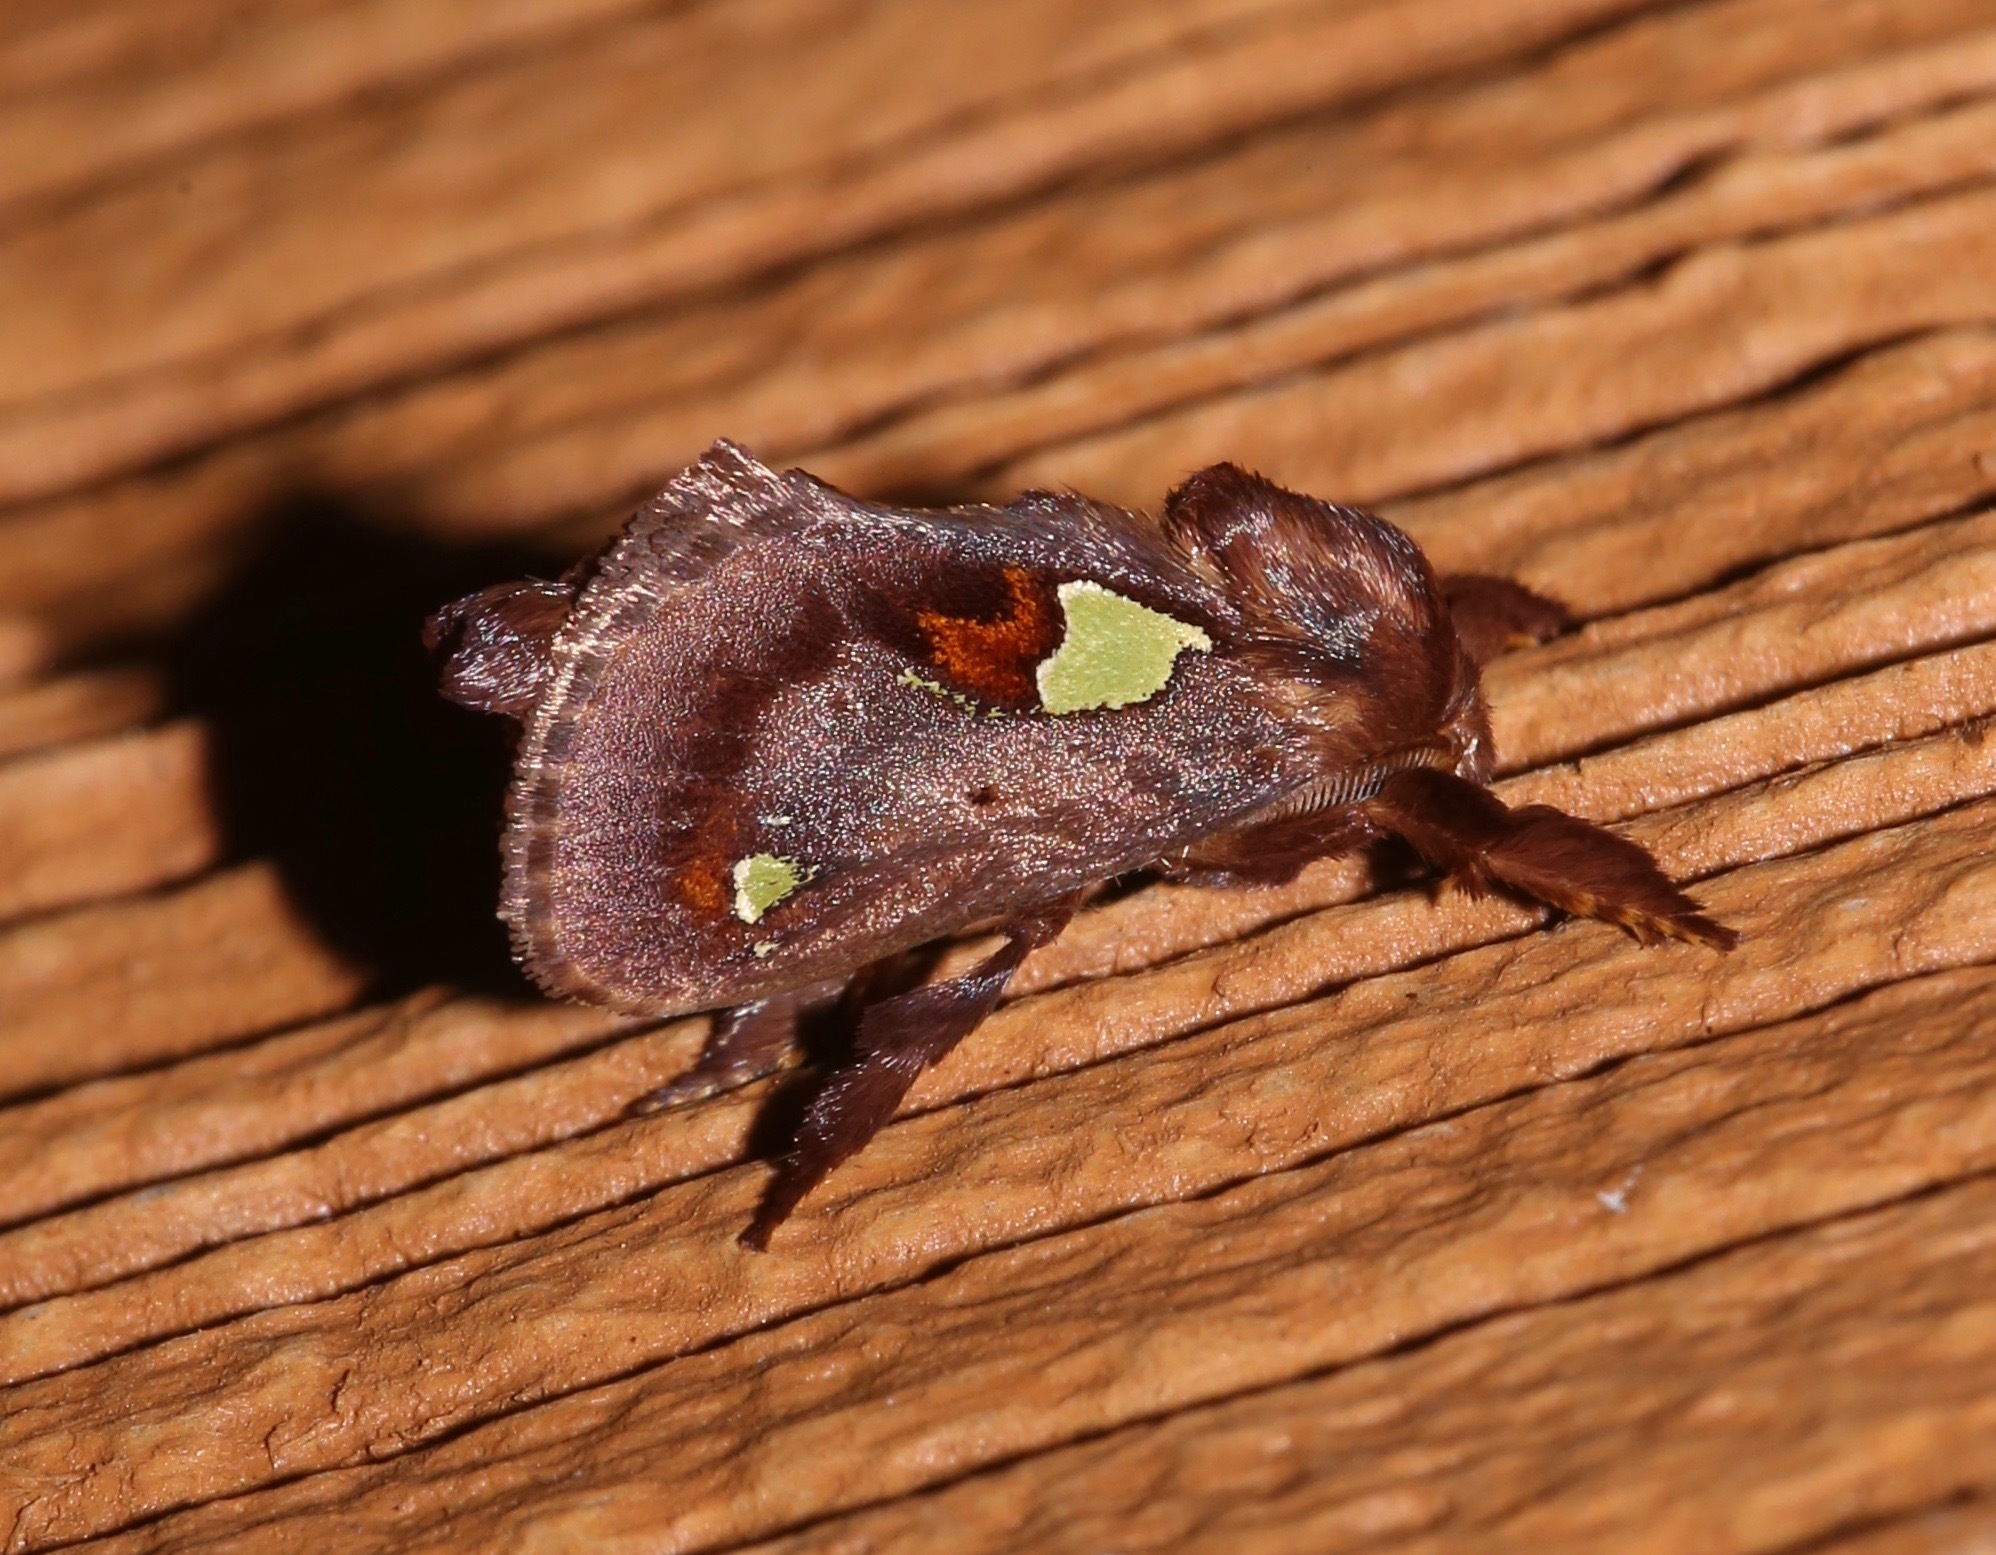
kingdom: Animalia
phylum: Arthropoda
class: Insecta
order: Lepidoptera
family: Limacodidae
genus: Euclea
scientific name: Euclea delphinii
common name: Spiny oak-slug moth
